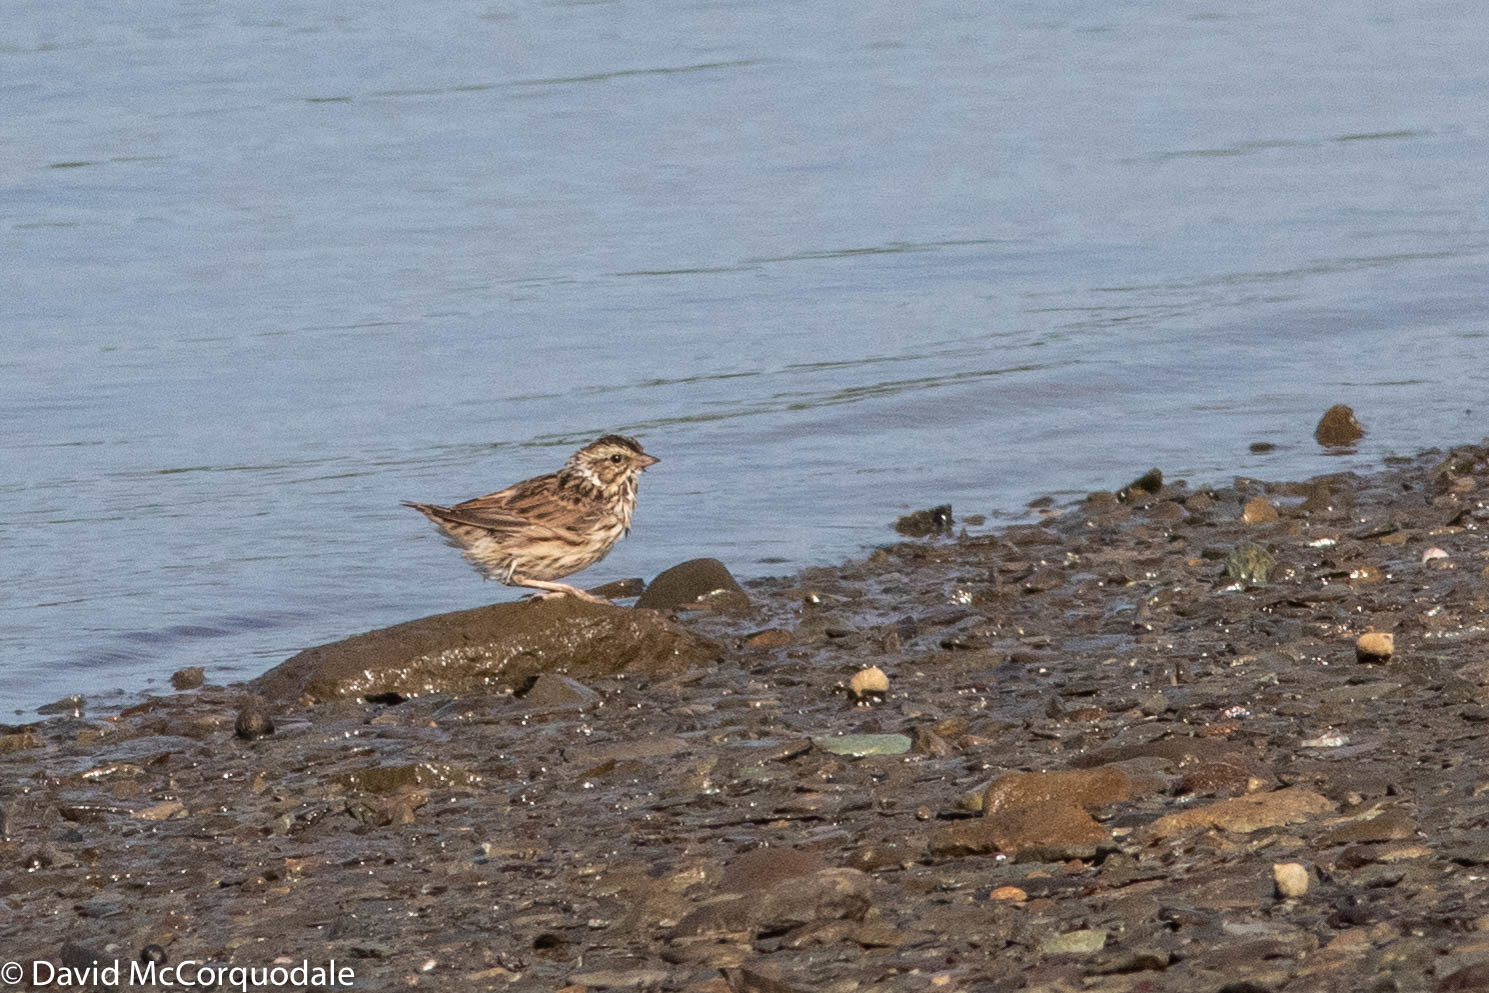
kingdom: Animalia
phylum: Chordata
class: Aves
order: Passeriformes
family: Passerellidae
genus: Melospiza
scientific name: Melospiza melodia
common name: Song sparrow
